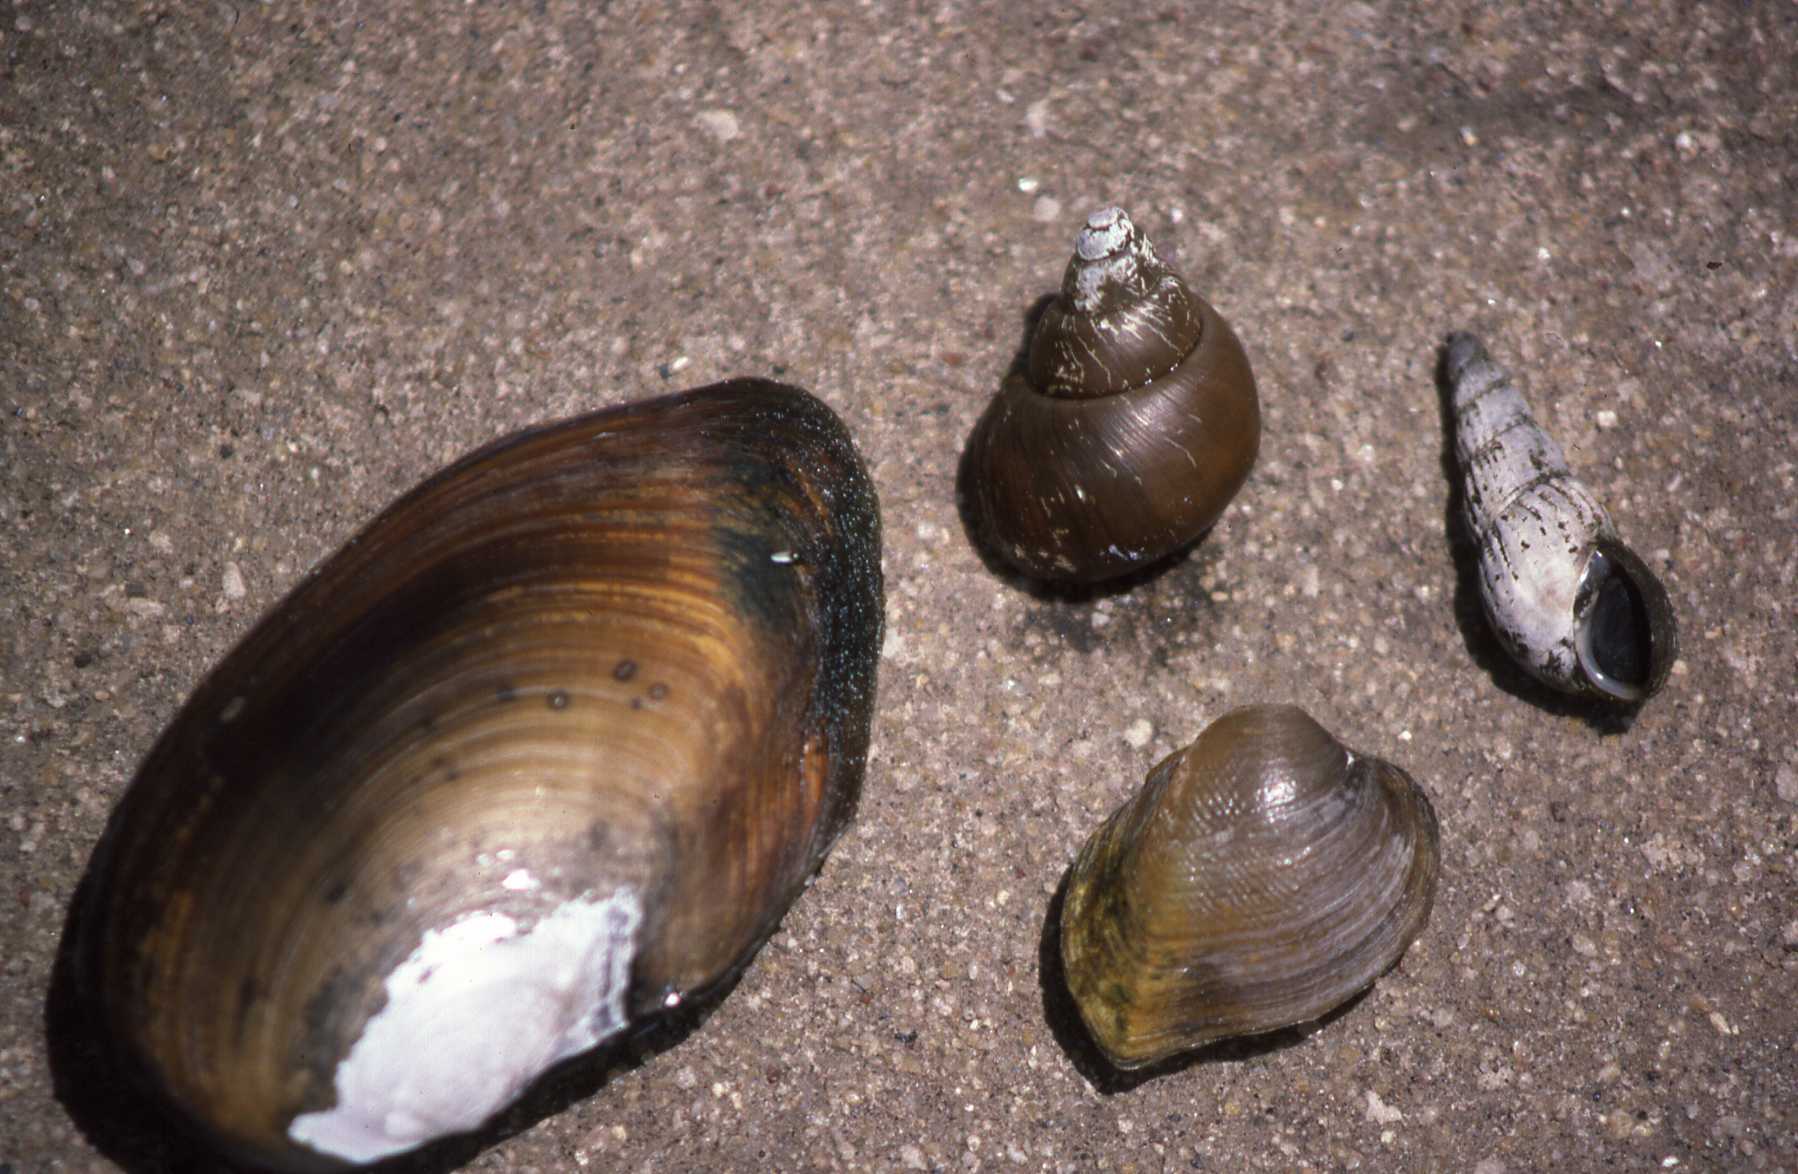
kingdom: Animalia
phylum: Mollusca
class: Bivalvia
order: Unionida
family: Iridinidae
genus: Chambardia
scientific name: Chambardia nyassaensis
